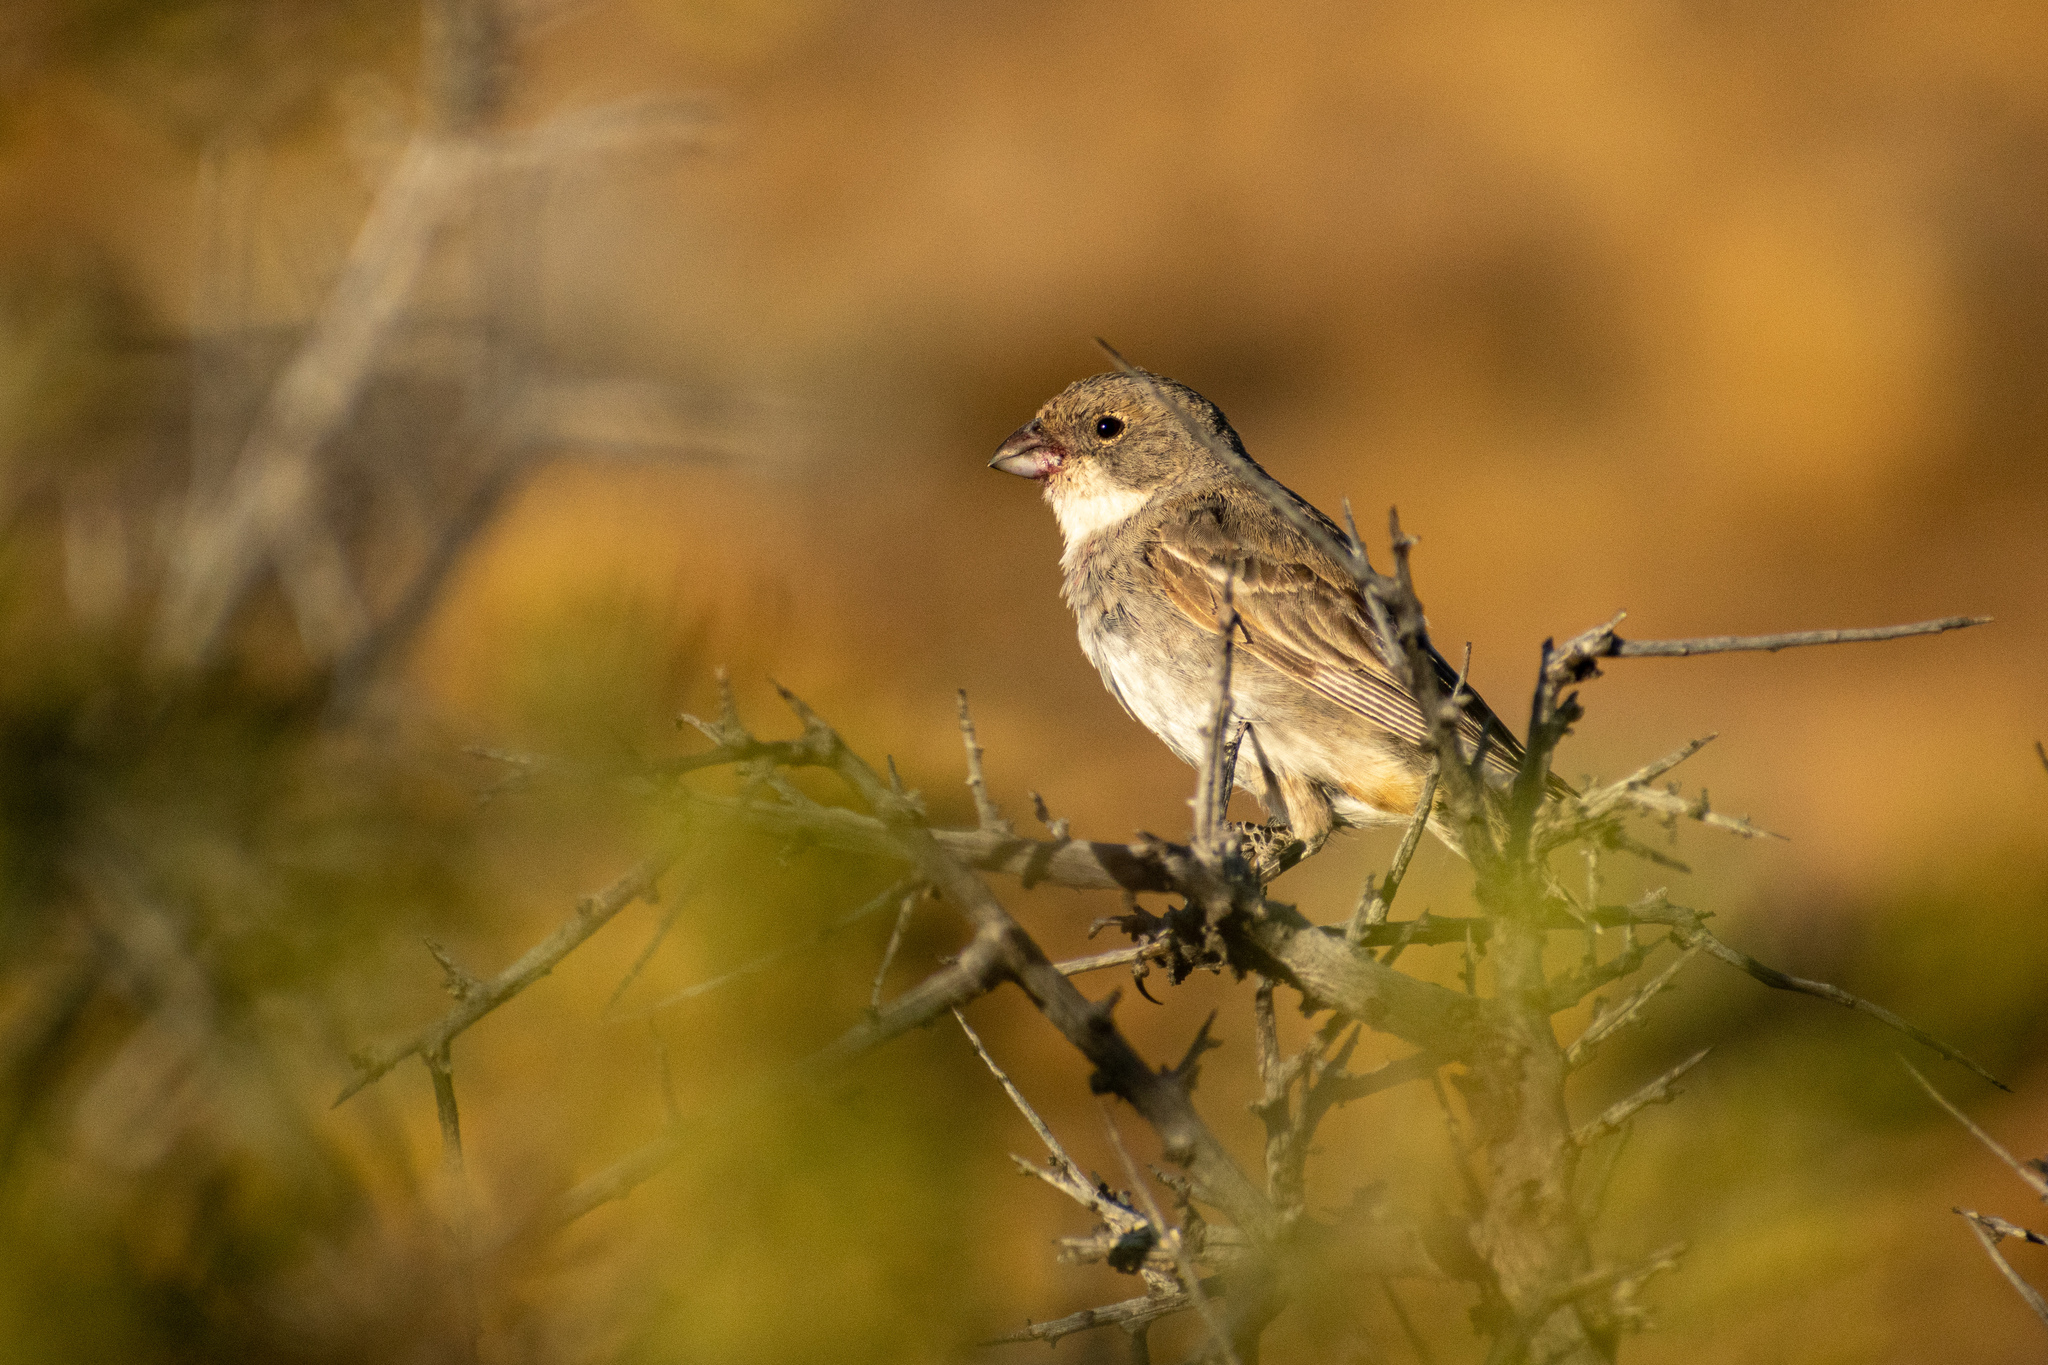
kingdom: Animalia
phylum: Chordata
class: Aves
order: Passeriformes
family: Thraupidae
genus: Diuca
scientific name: Diuca diuca
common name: Common diuca finch
